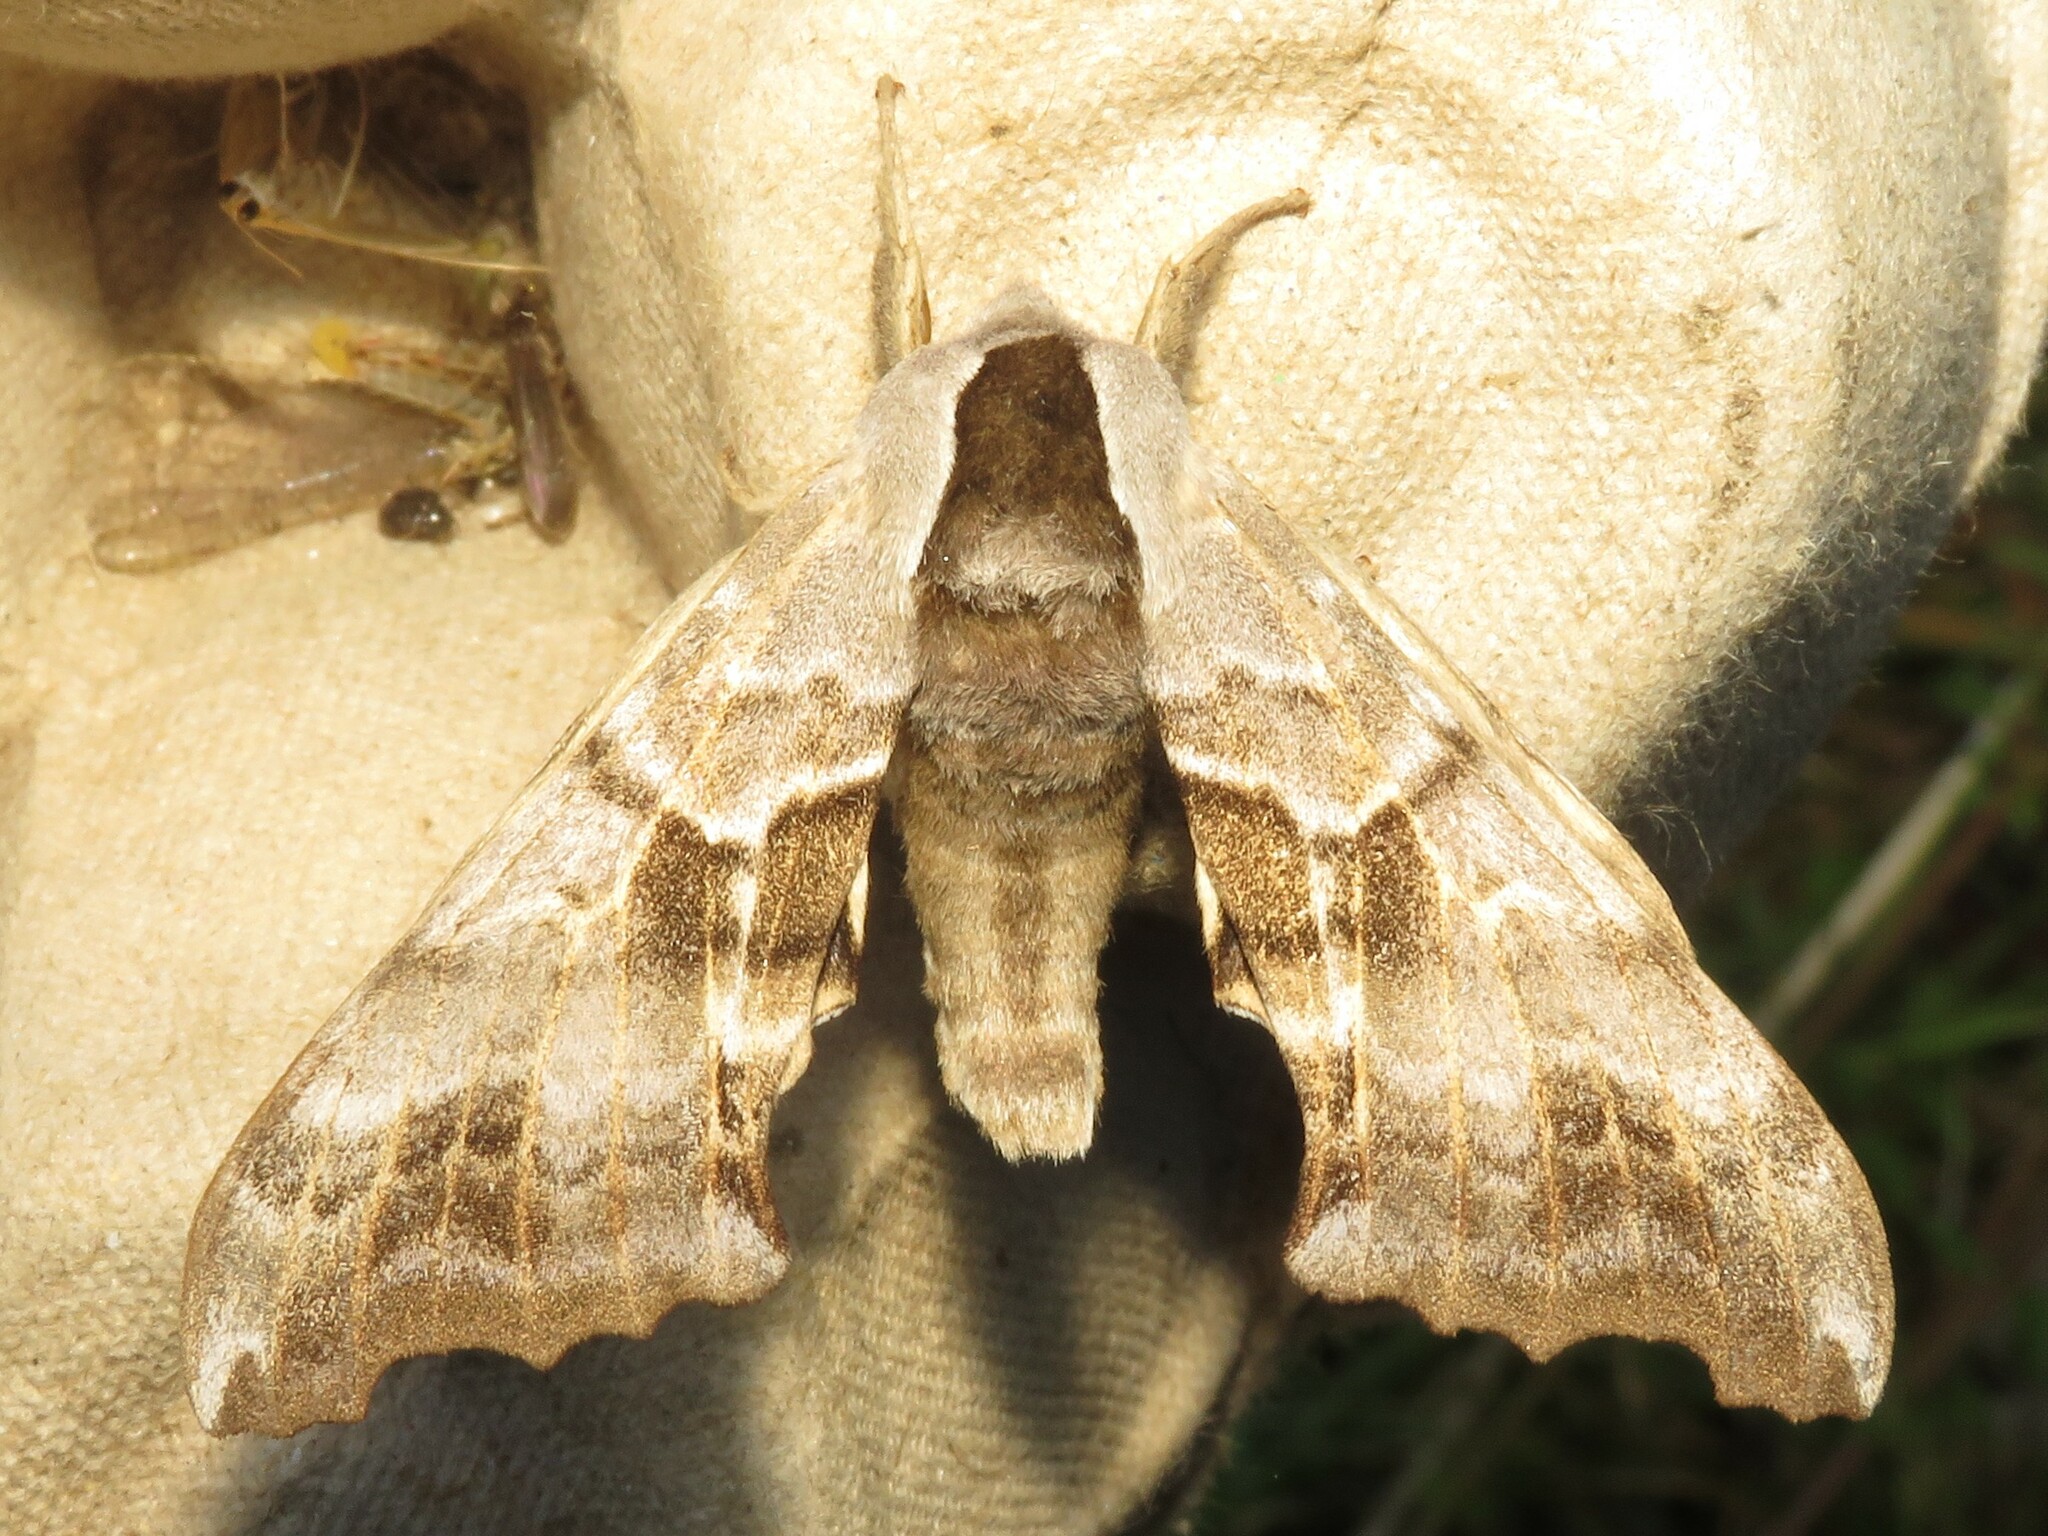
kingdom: Animalia
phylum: Arthropoda
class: Insecta
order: Lepidoptera
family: Sphingidae
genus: Smerinthus
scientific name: Smerinthus cerisyi
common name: Cerisy's sphinx moth
